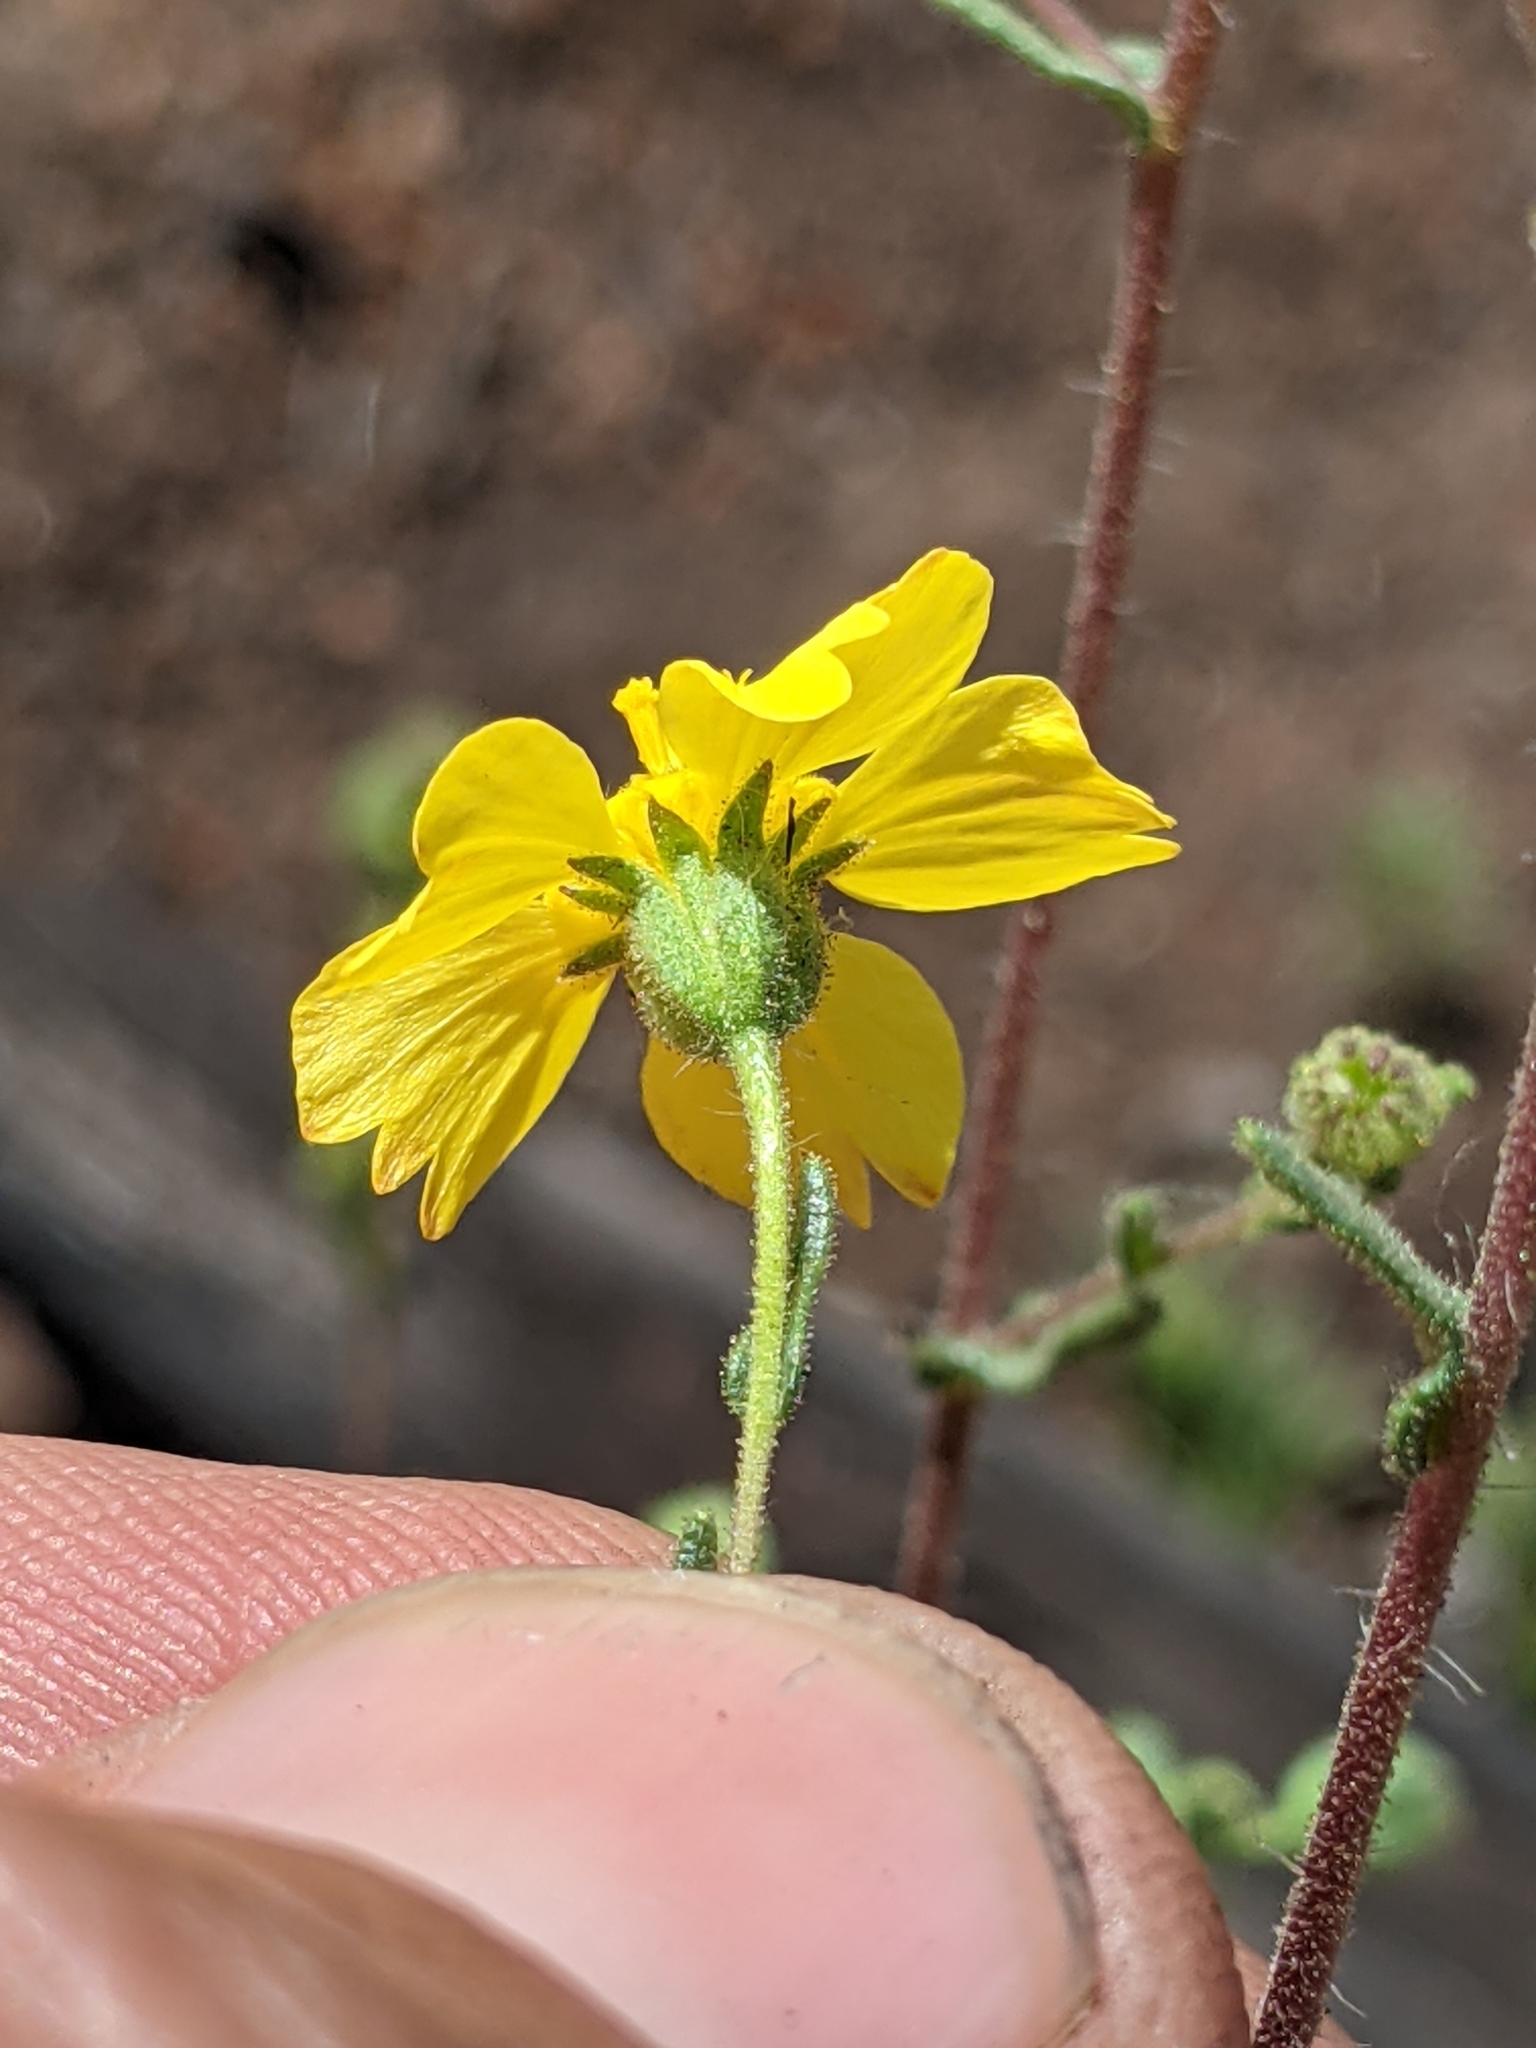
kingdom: Plantae
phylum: Tracheophyta
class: Magnoliopsida
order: Asterales
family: Asteraceae
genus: Deinandra
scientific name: Deinandra kelloggii
